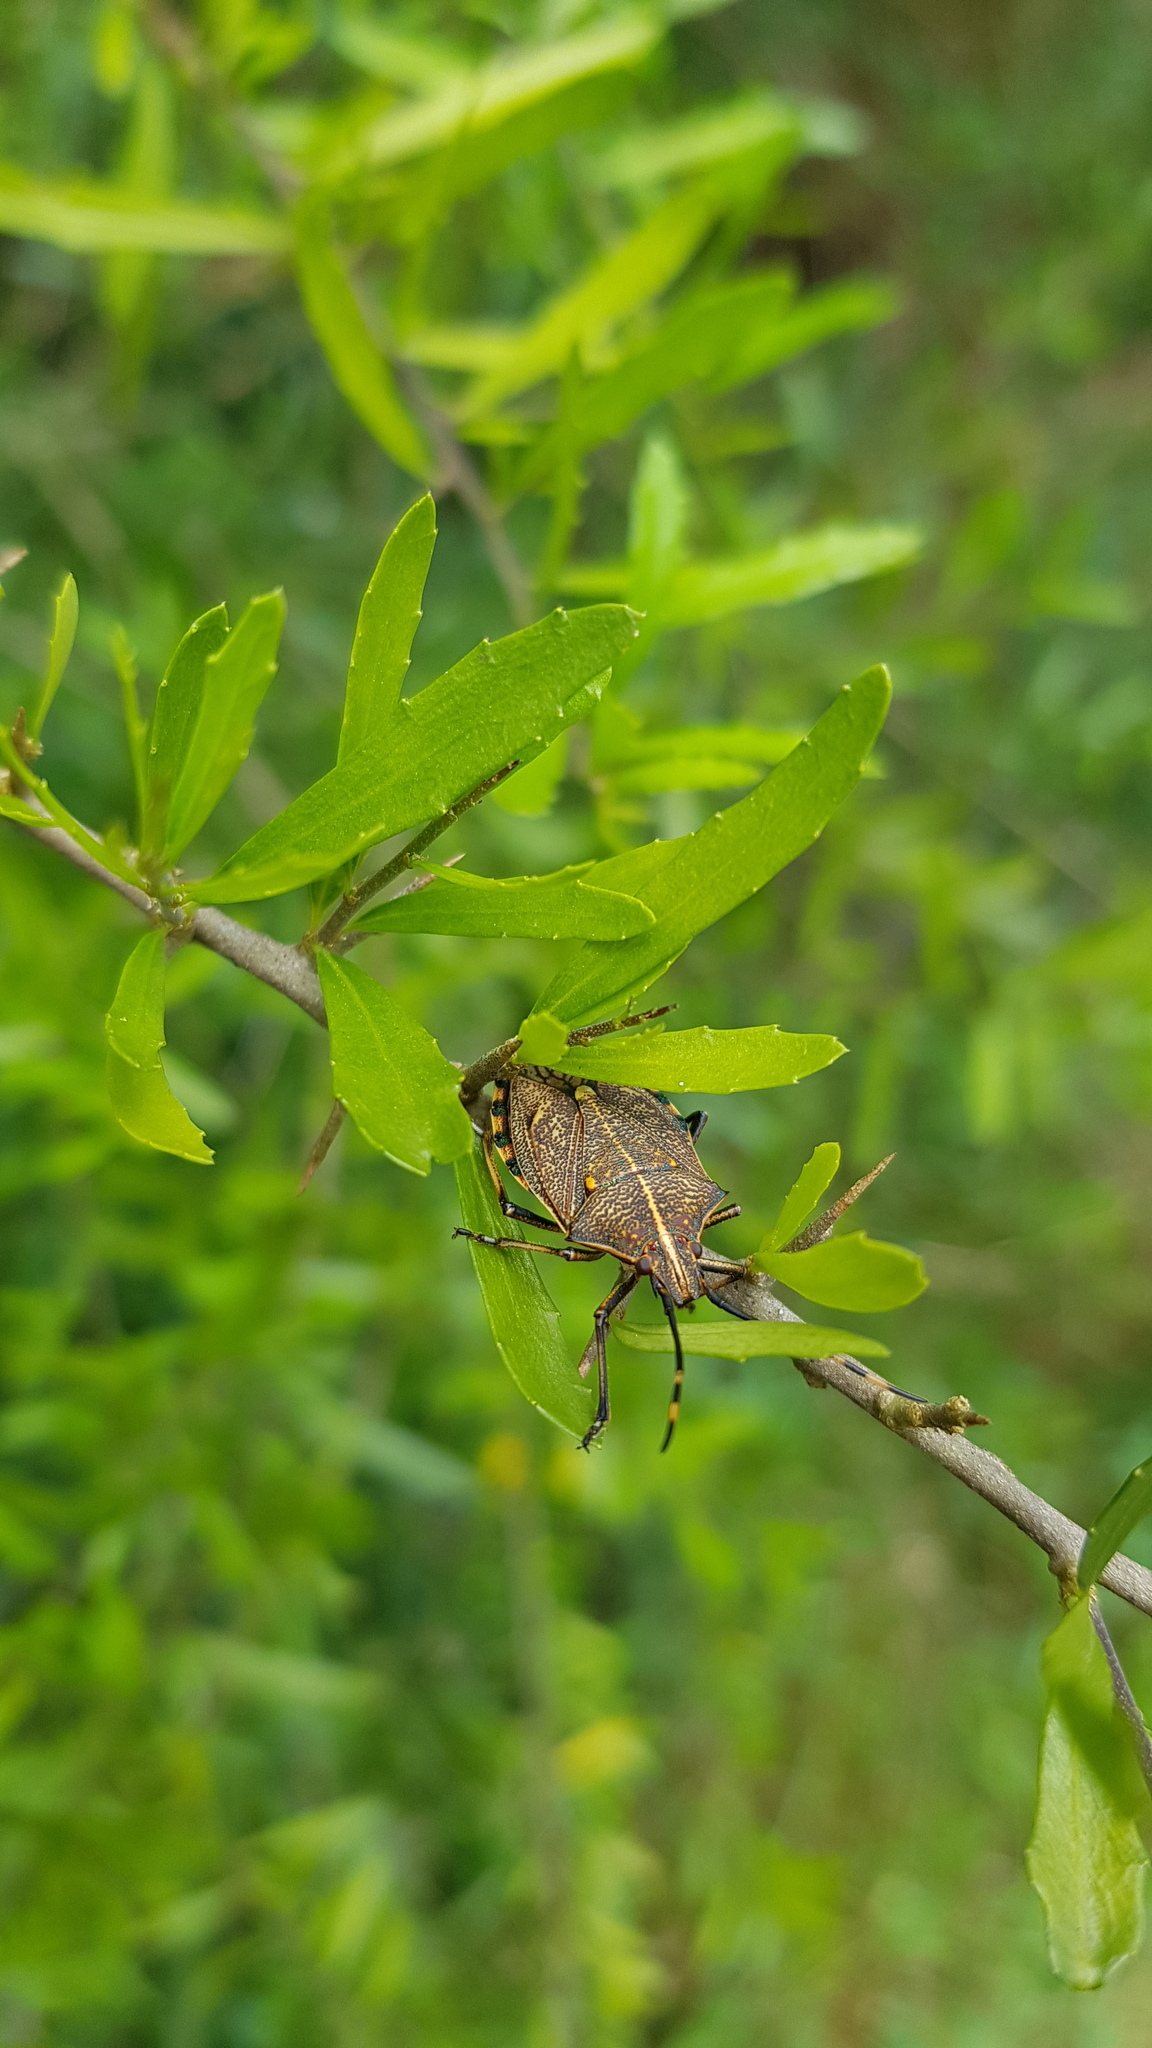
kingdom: Animalia
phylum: Arthropoda
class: Insecta
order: Hemiptera
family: Pentatomidae
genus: Omyta
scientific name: Omyta centrolineata
